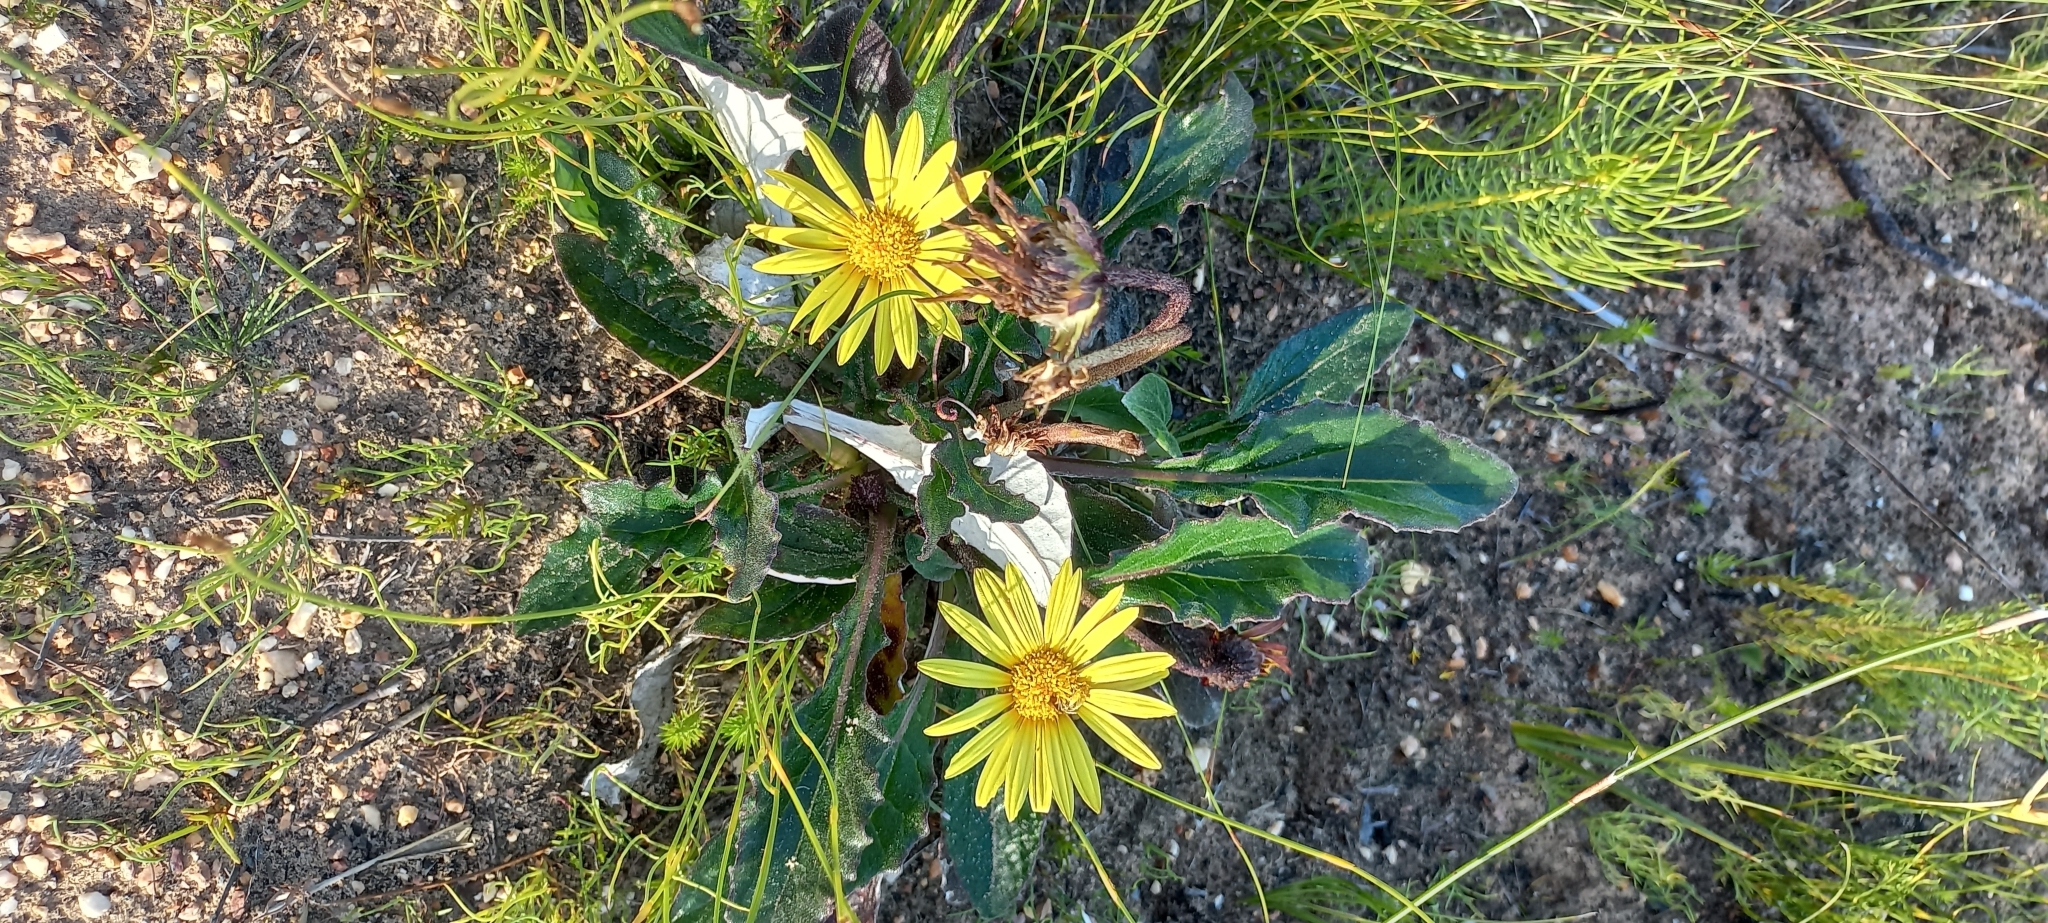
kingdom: Plantae
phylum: Tracheophyta
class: Magnoliopsida
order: Asterales
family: Asteraceae
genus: Haplocarpha
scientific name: Haplocarpha lanata
